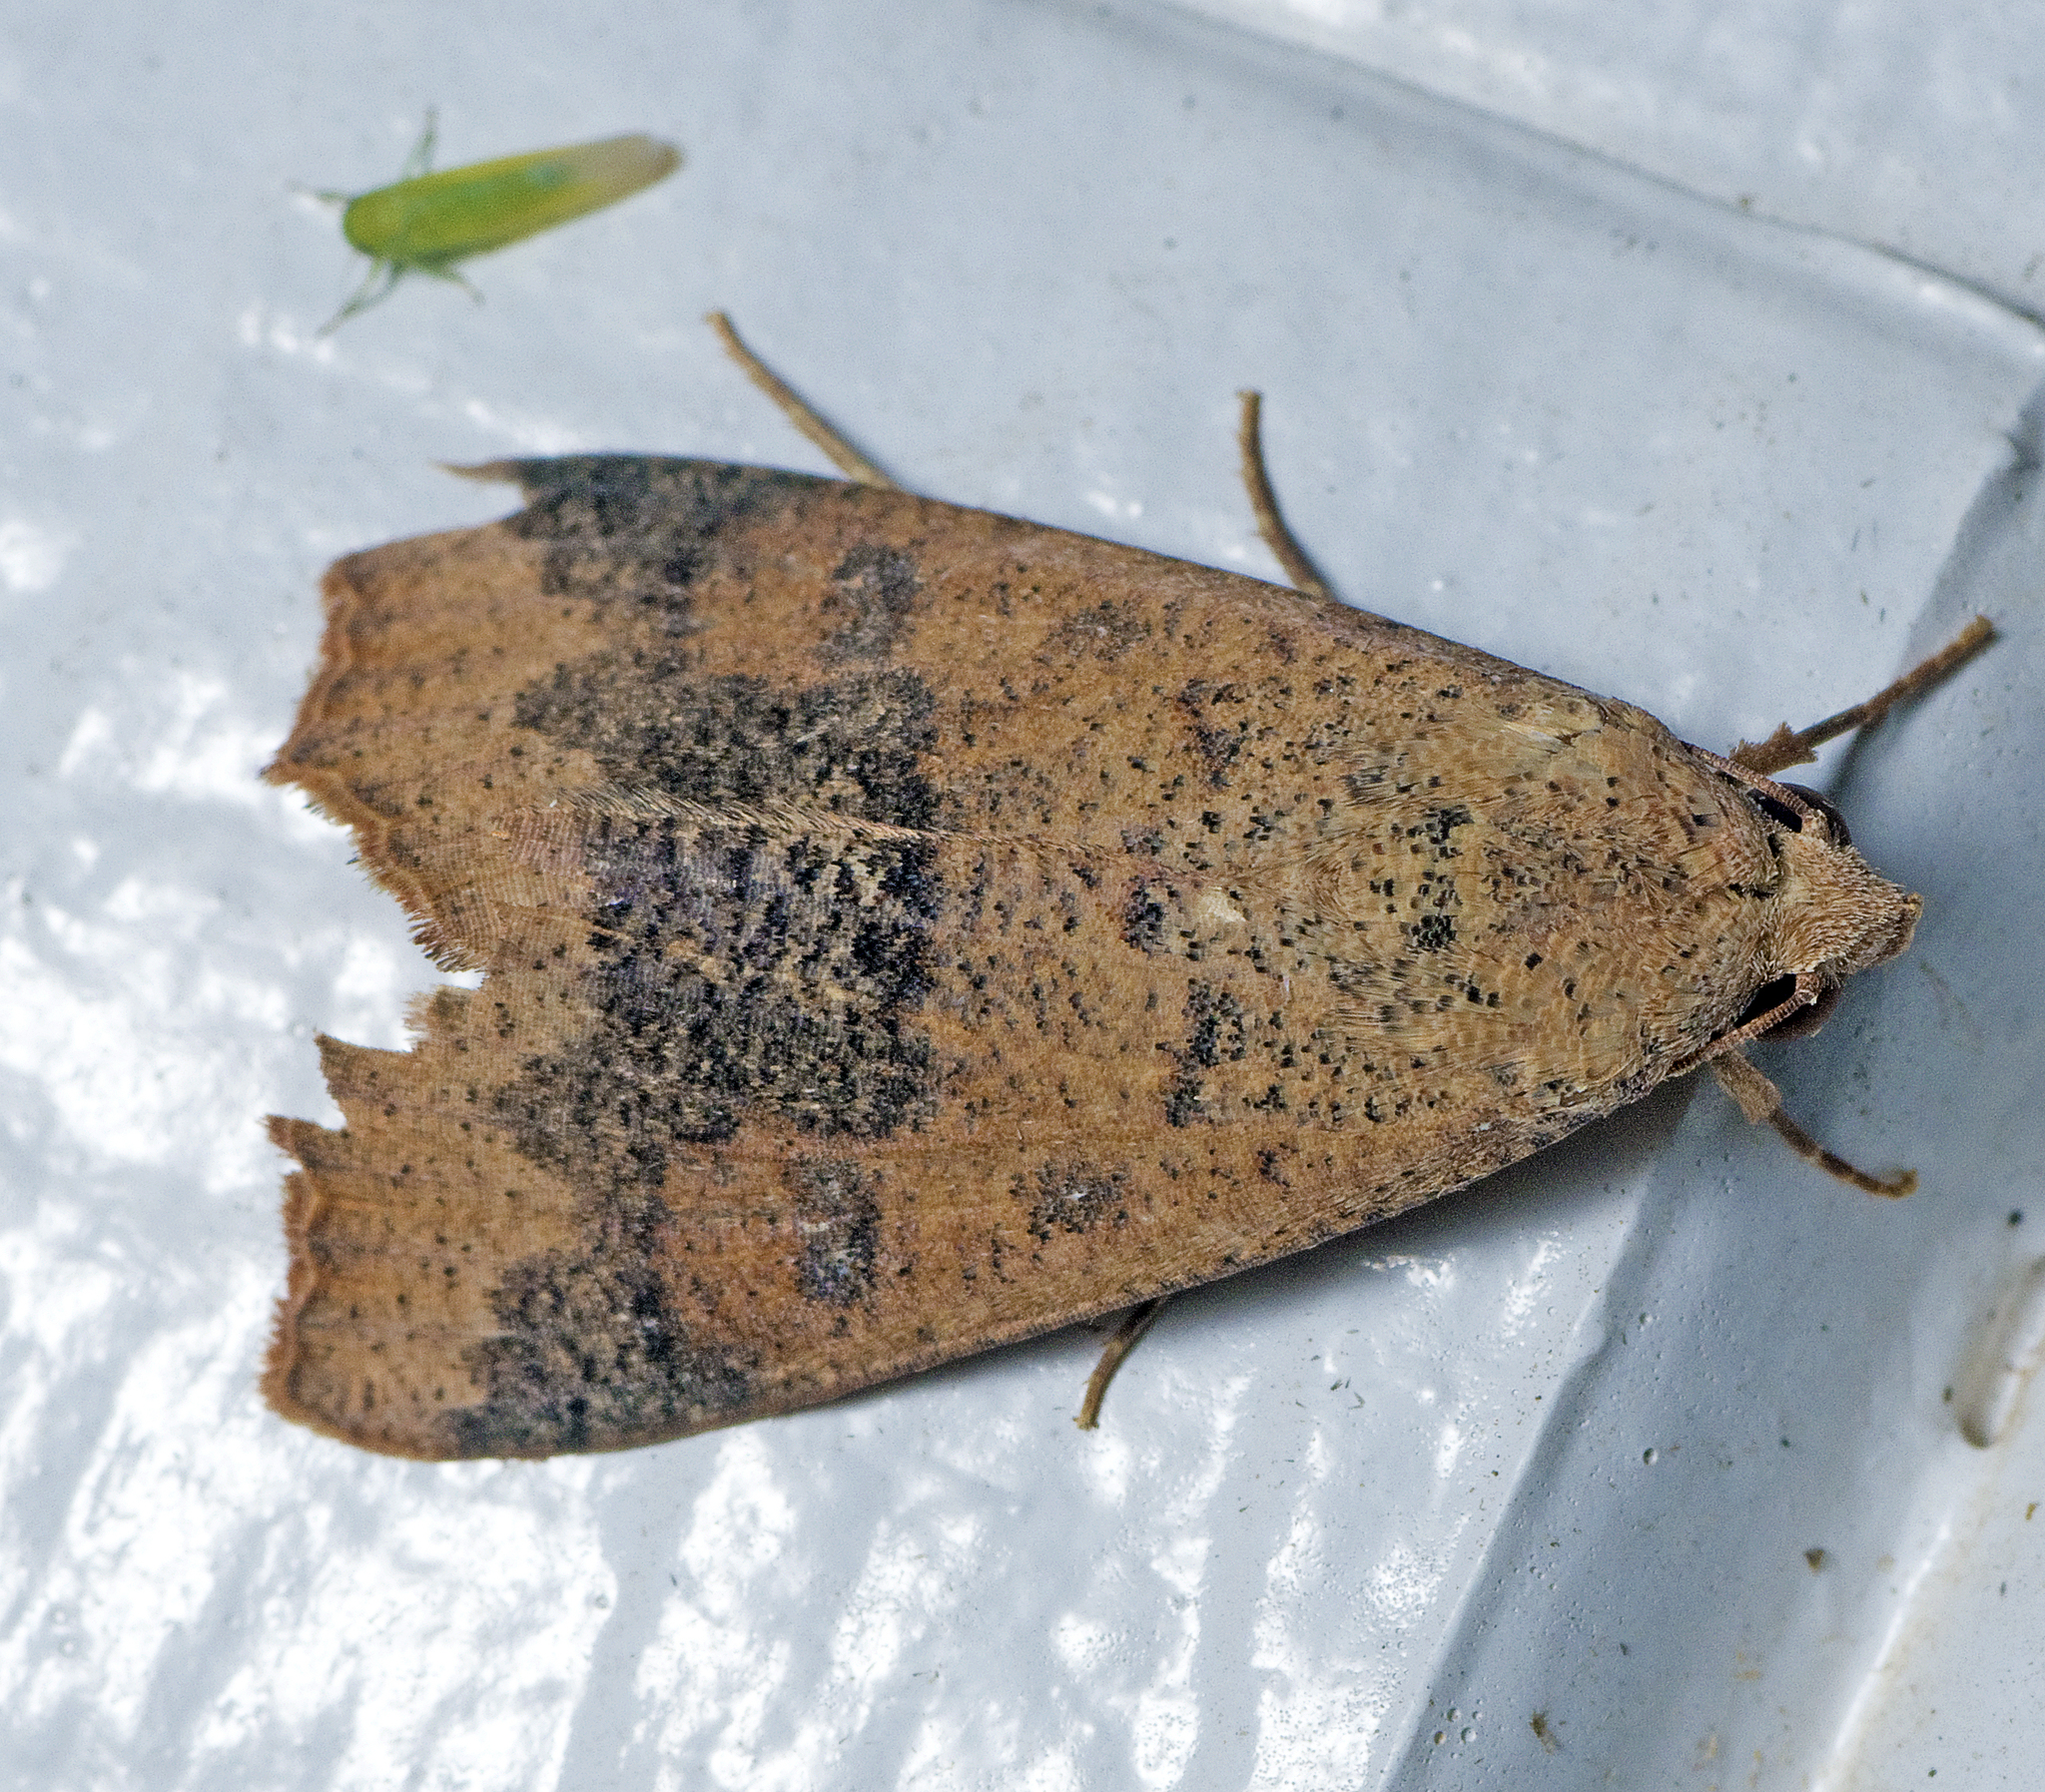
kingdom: Animalia
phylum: Arthropoda
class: Insecta
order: Lepidoptera
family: Erebidae
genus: Gonitis
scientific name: Gonitis involuta
